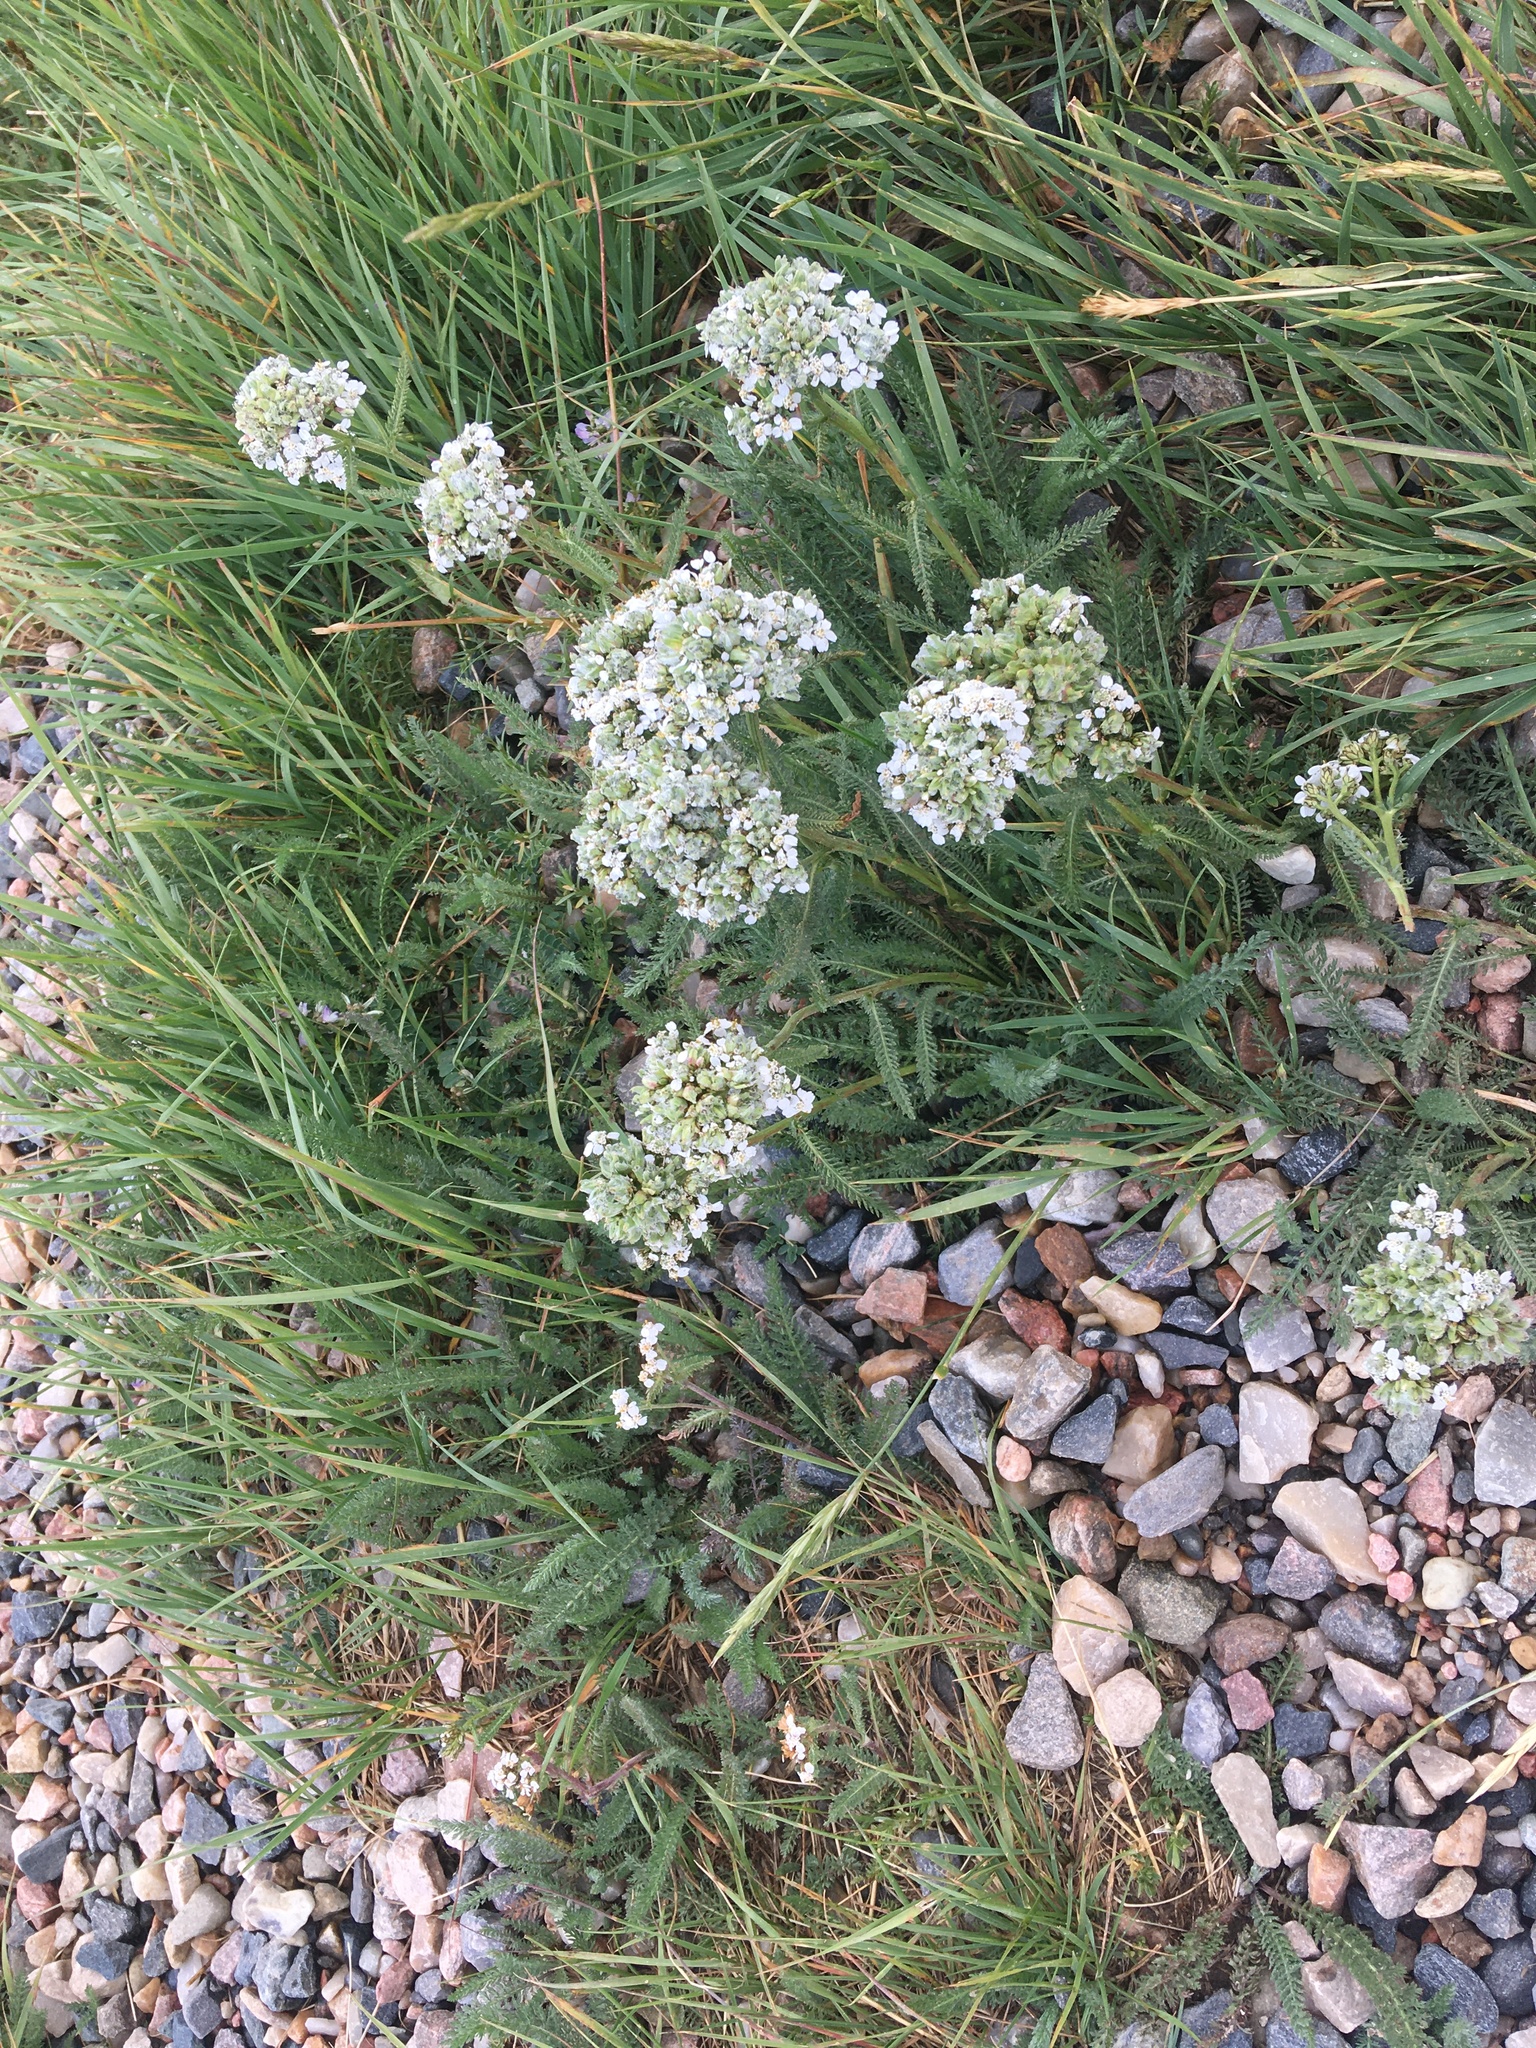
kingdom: Plantae
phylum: Tracheophyta
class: Magnoliopsida
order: Asterales
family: Asteraceae
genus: Achillea
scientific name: Achillea millefolium
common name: Yarrow
